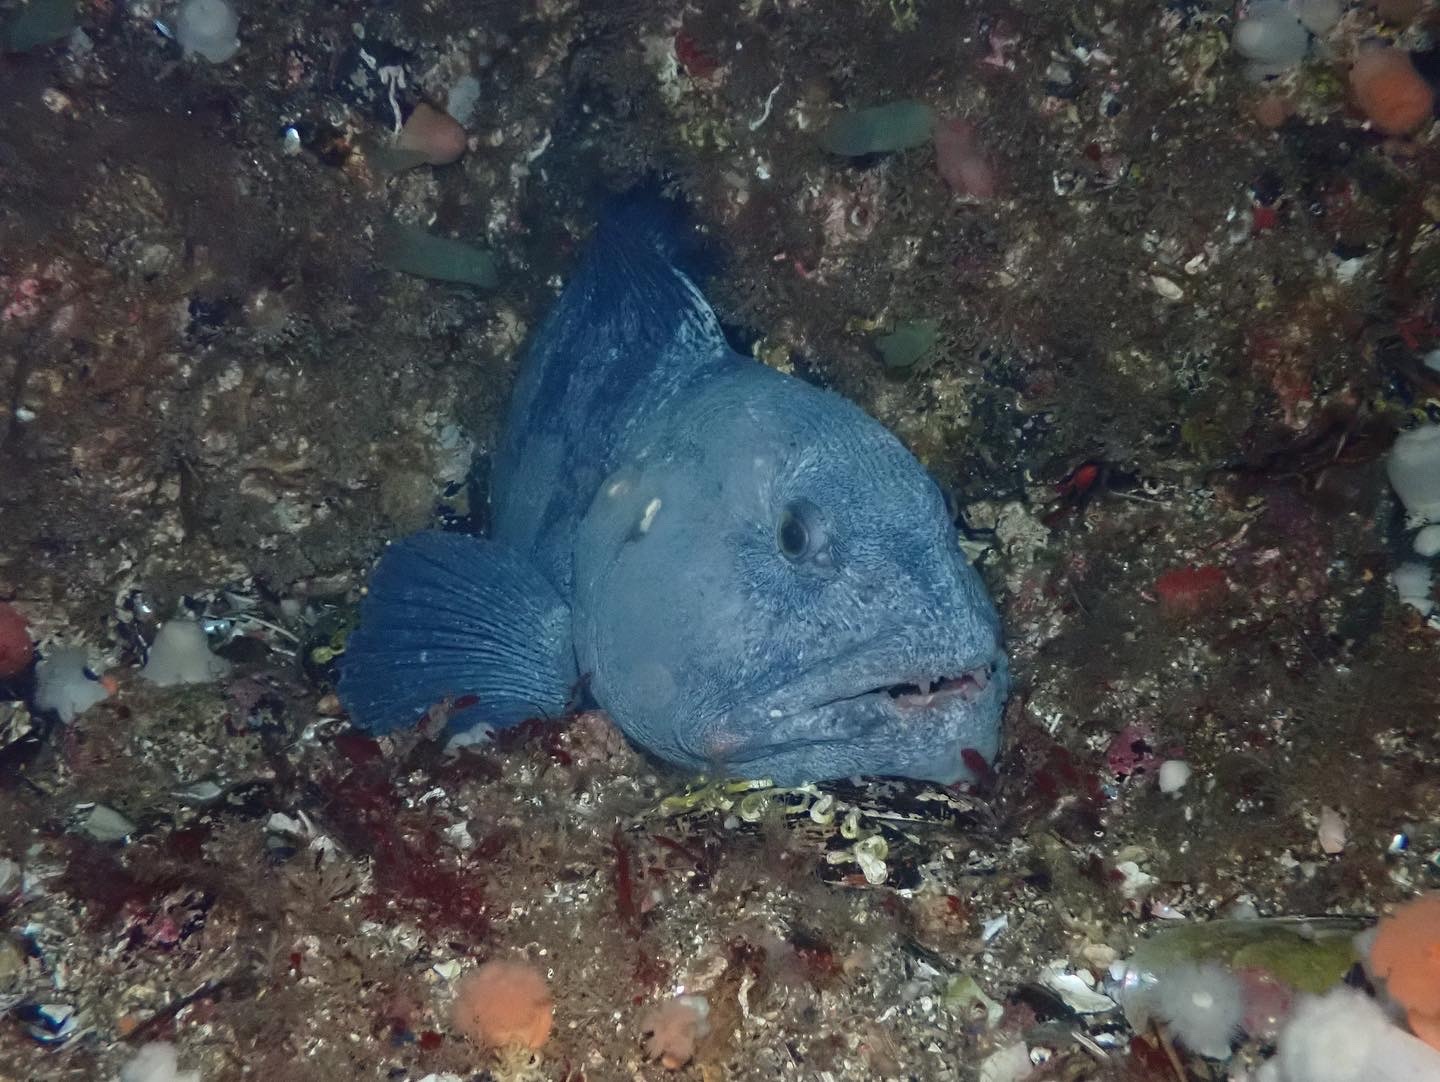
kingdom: Animalia
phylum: Chordata
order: Perciformes
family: Anarhichadidae
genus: Anarhichas
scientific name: Anarhichas lupus
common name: Wolf-fish
